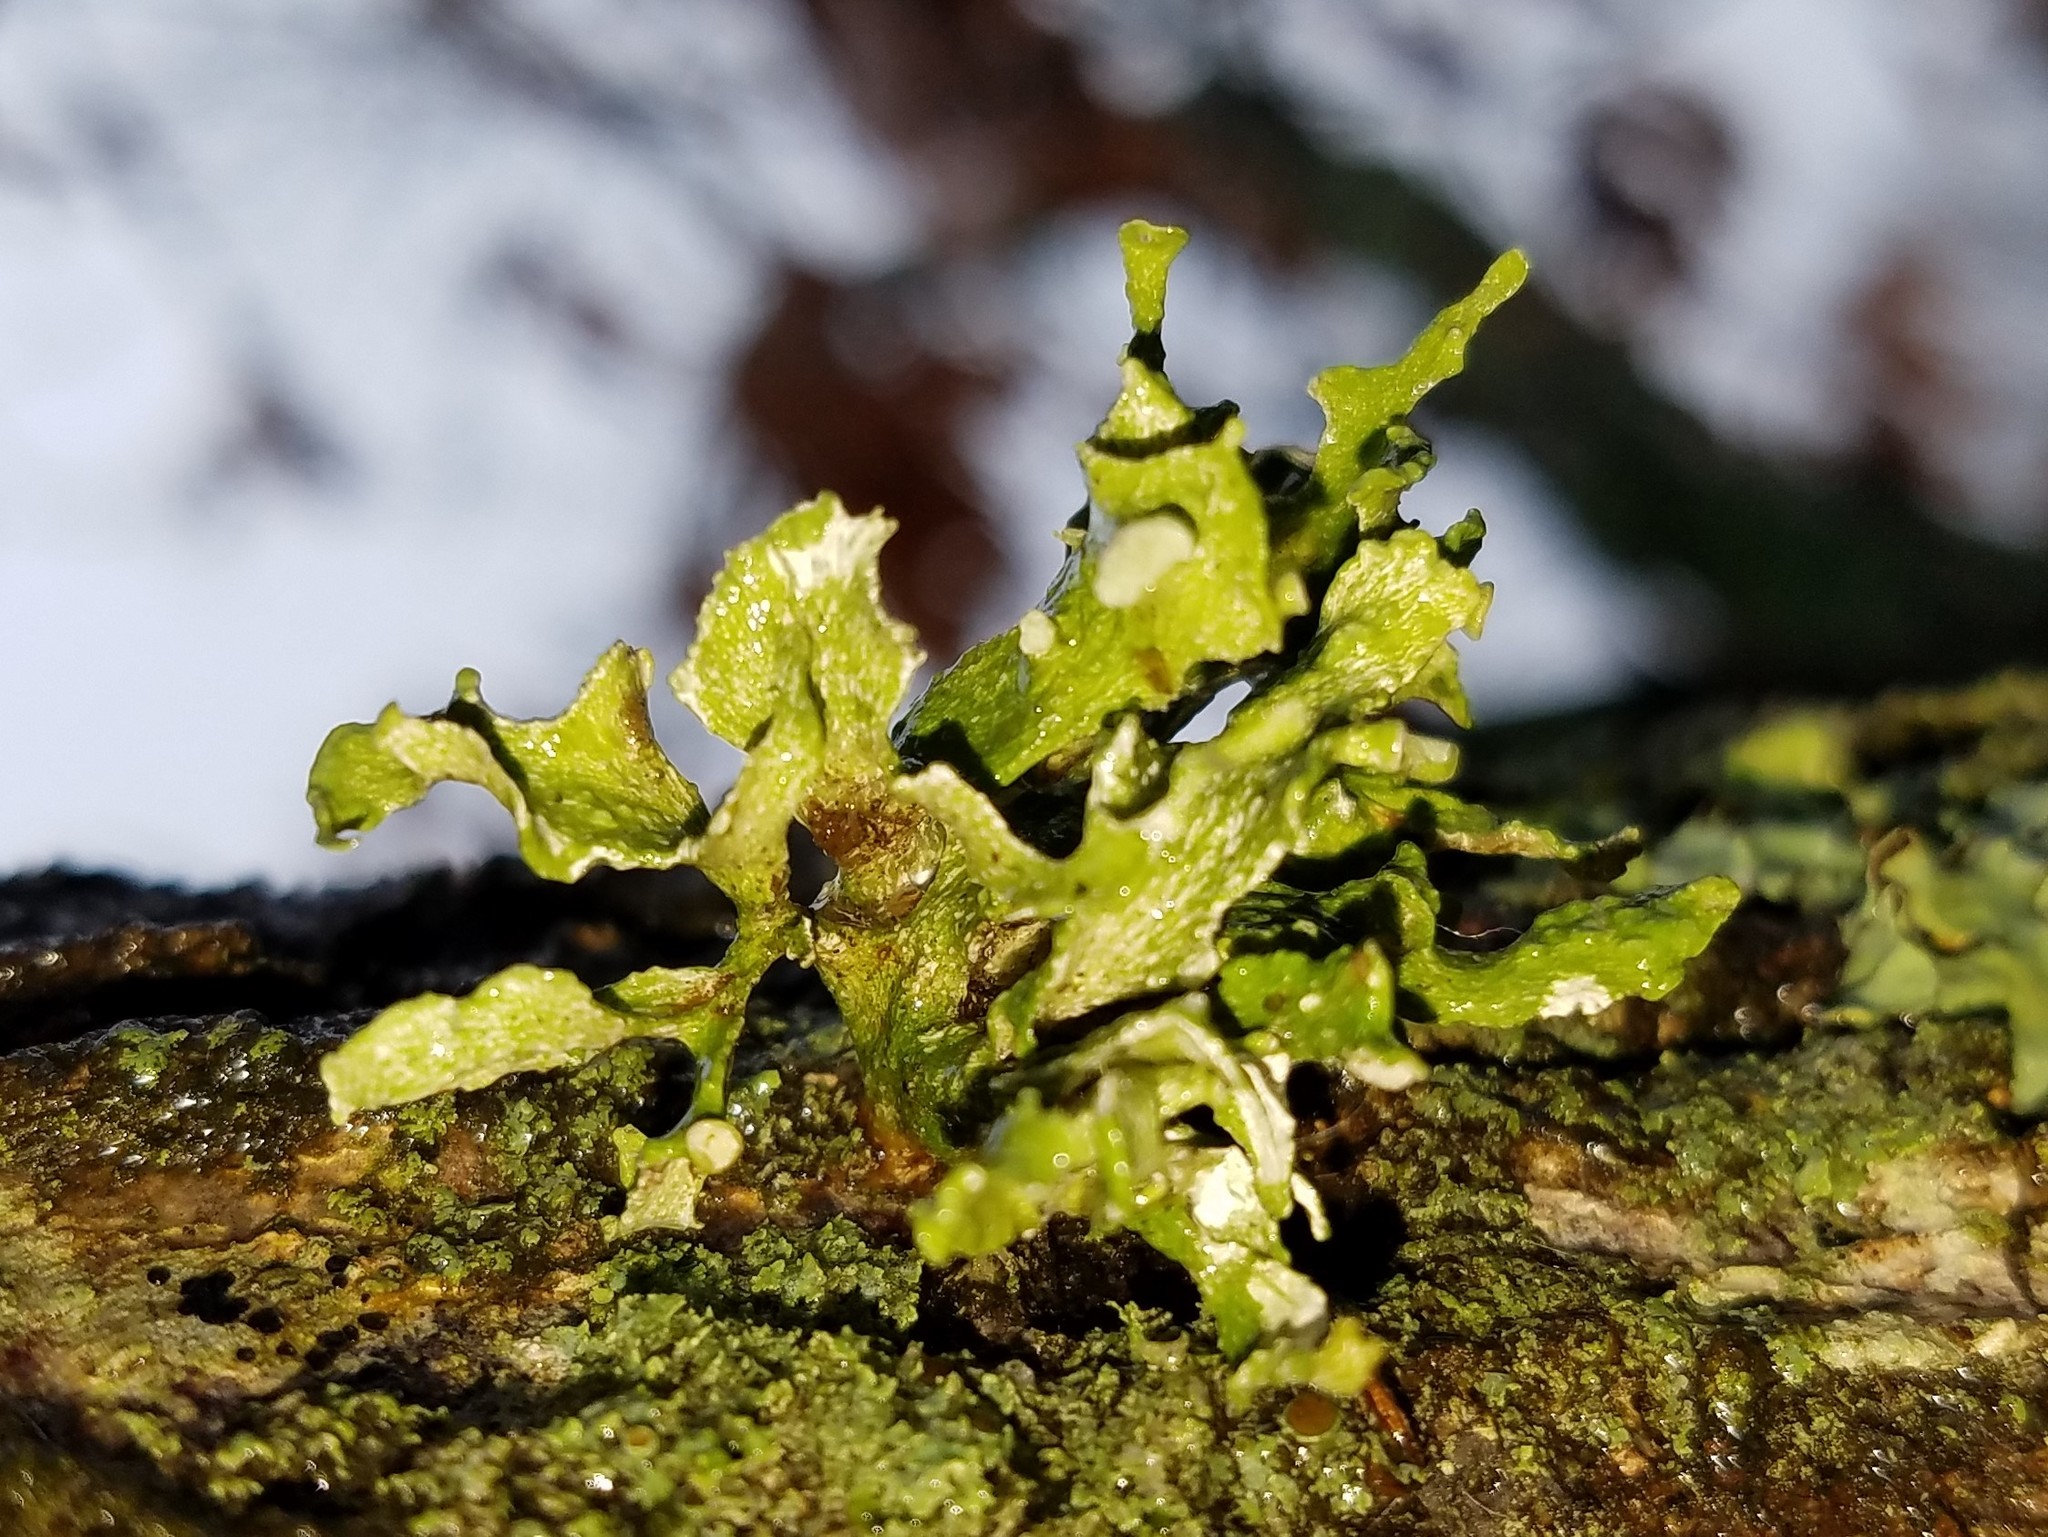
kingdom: Fungi
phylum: Ascomycota
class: Lecanoromycetes
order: Lecanorales
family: Ramalinaceae
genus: Ramalina
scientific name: Ramalina complanata
